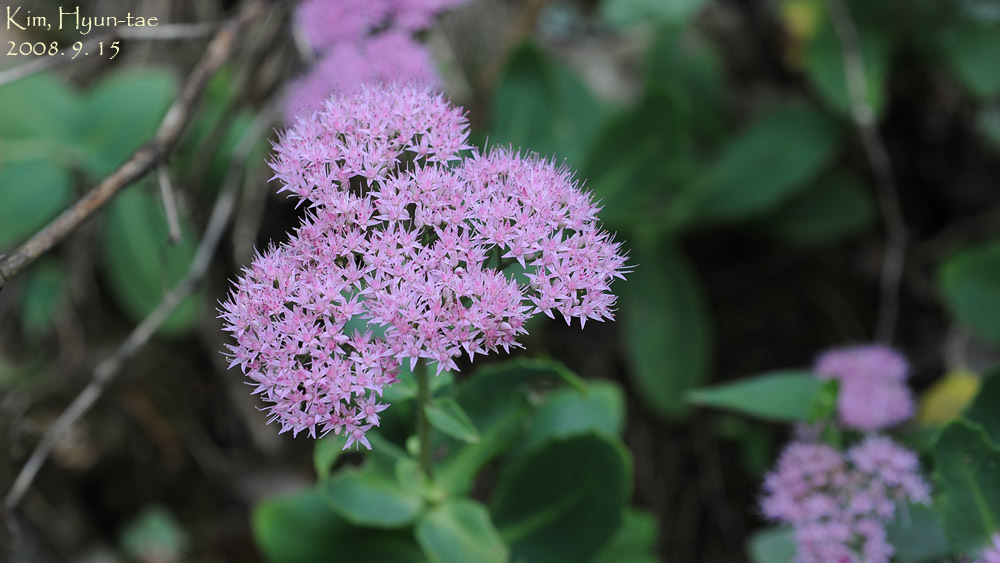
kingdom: Plantae
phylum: Tracheophyta
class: Magnoliopsida
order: Saxifragales
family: Crassulaceae
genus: Hylotelephium
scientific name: Hylotelephium spectabile
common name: Showy stonecrop
